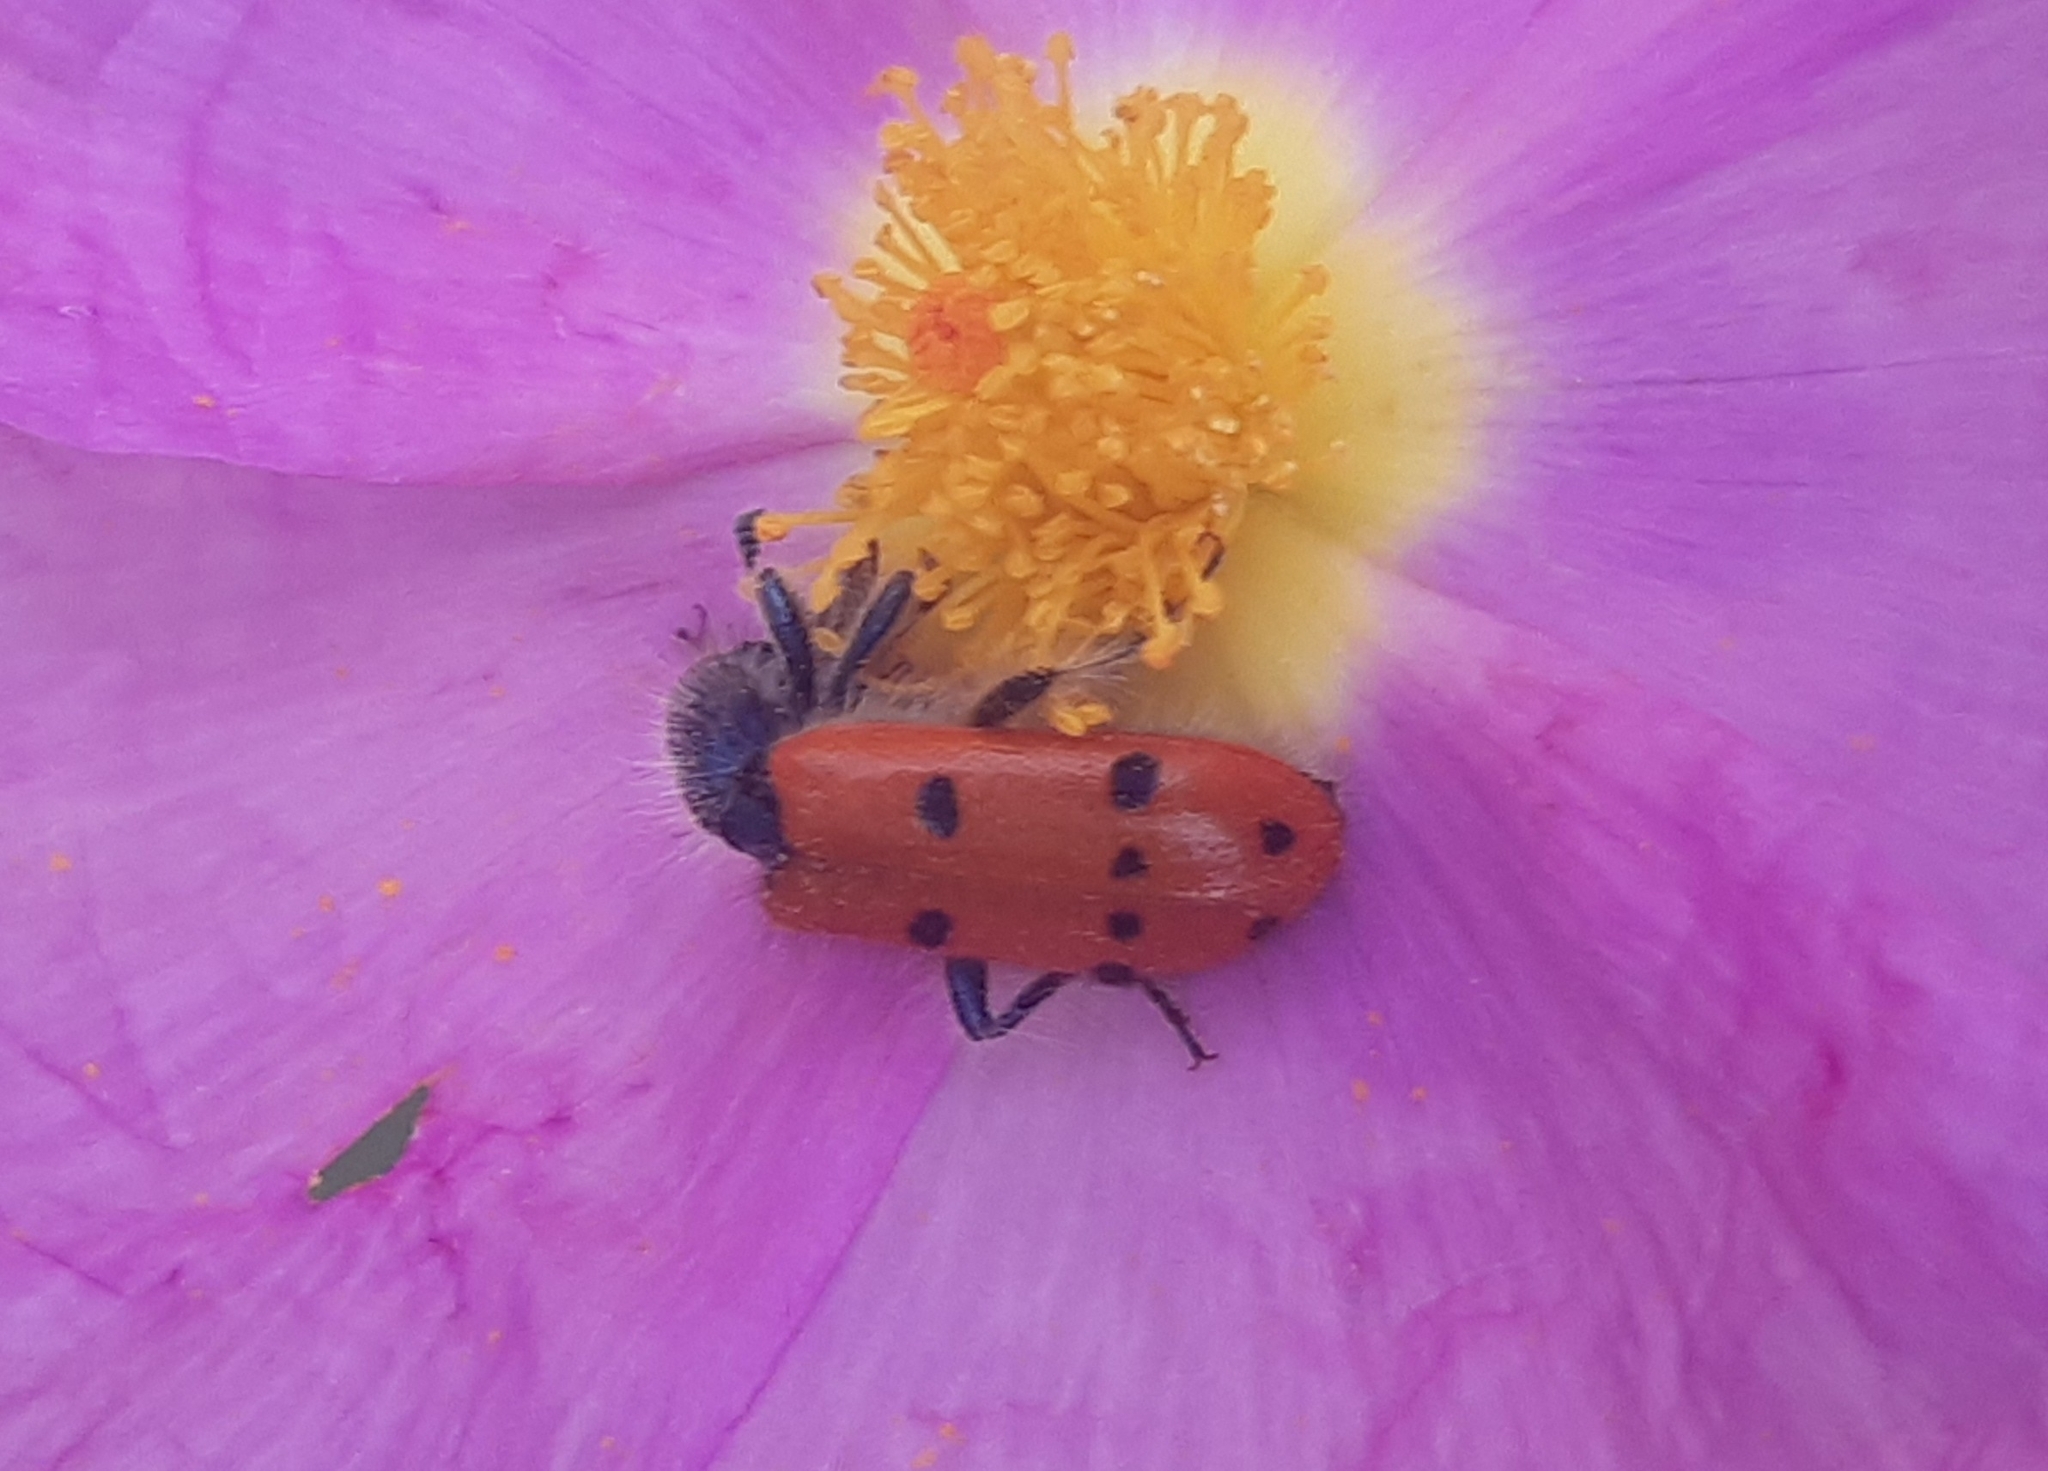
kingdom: Animalia
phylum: Arthropoda
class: Insecta
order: Coleoptera
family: Cleridae
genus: Trichodes
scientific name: Trichodes octopunctatus
